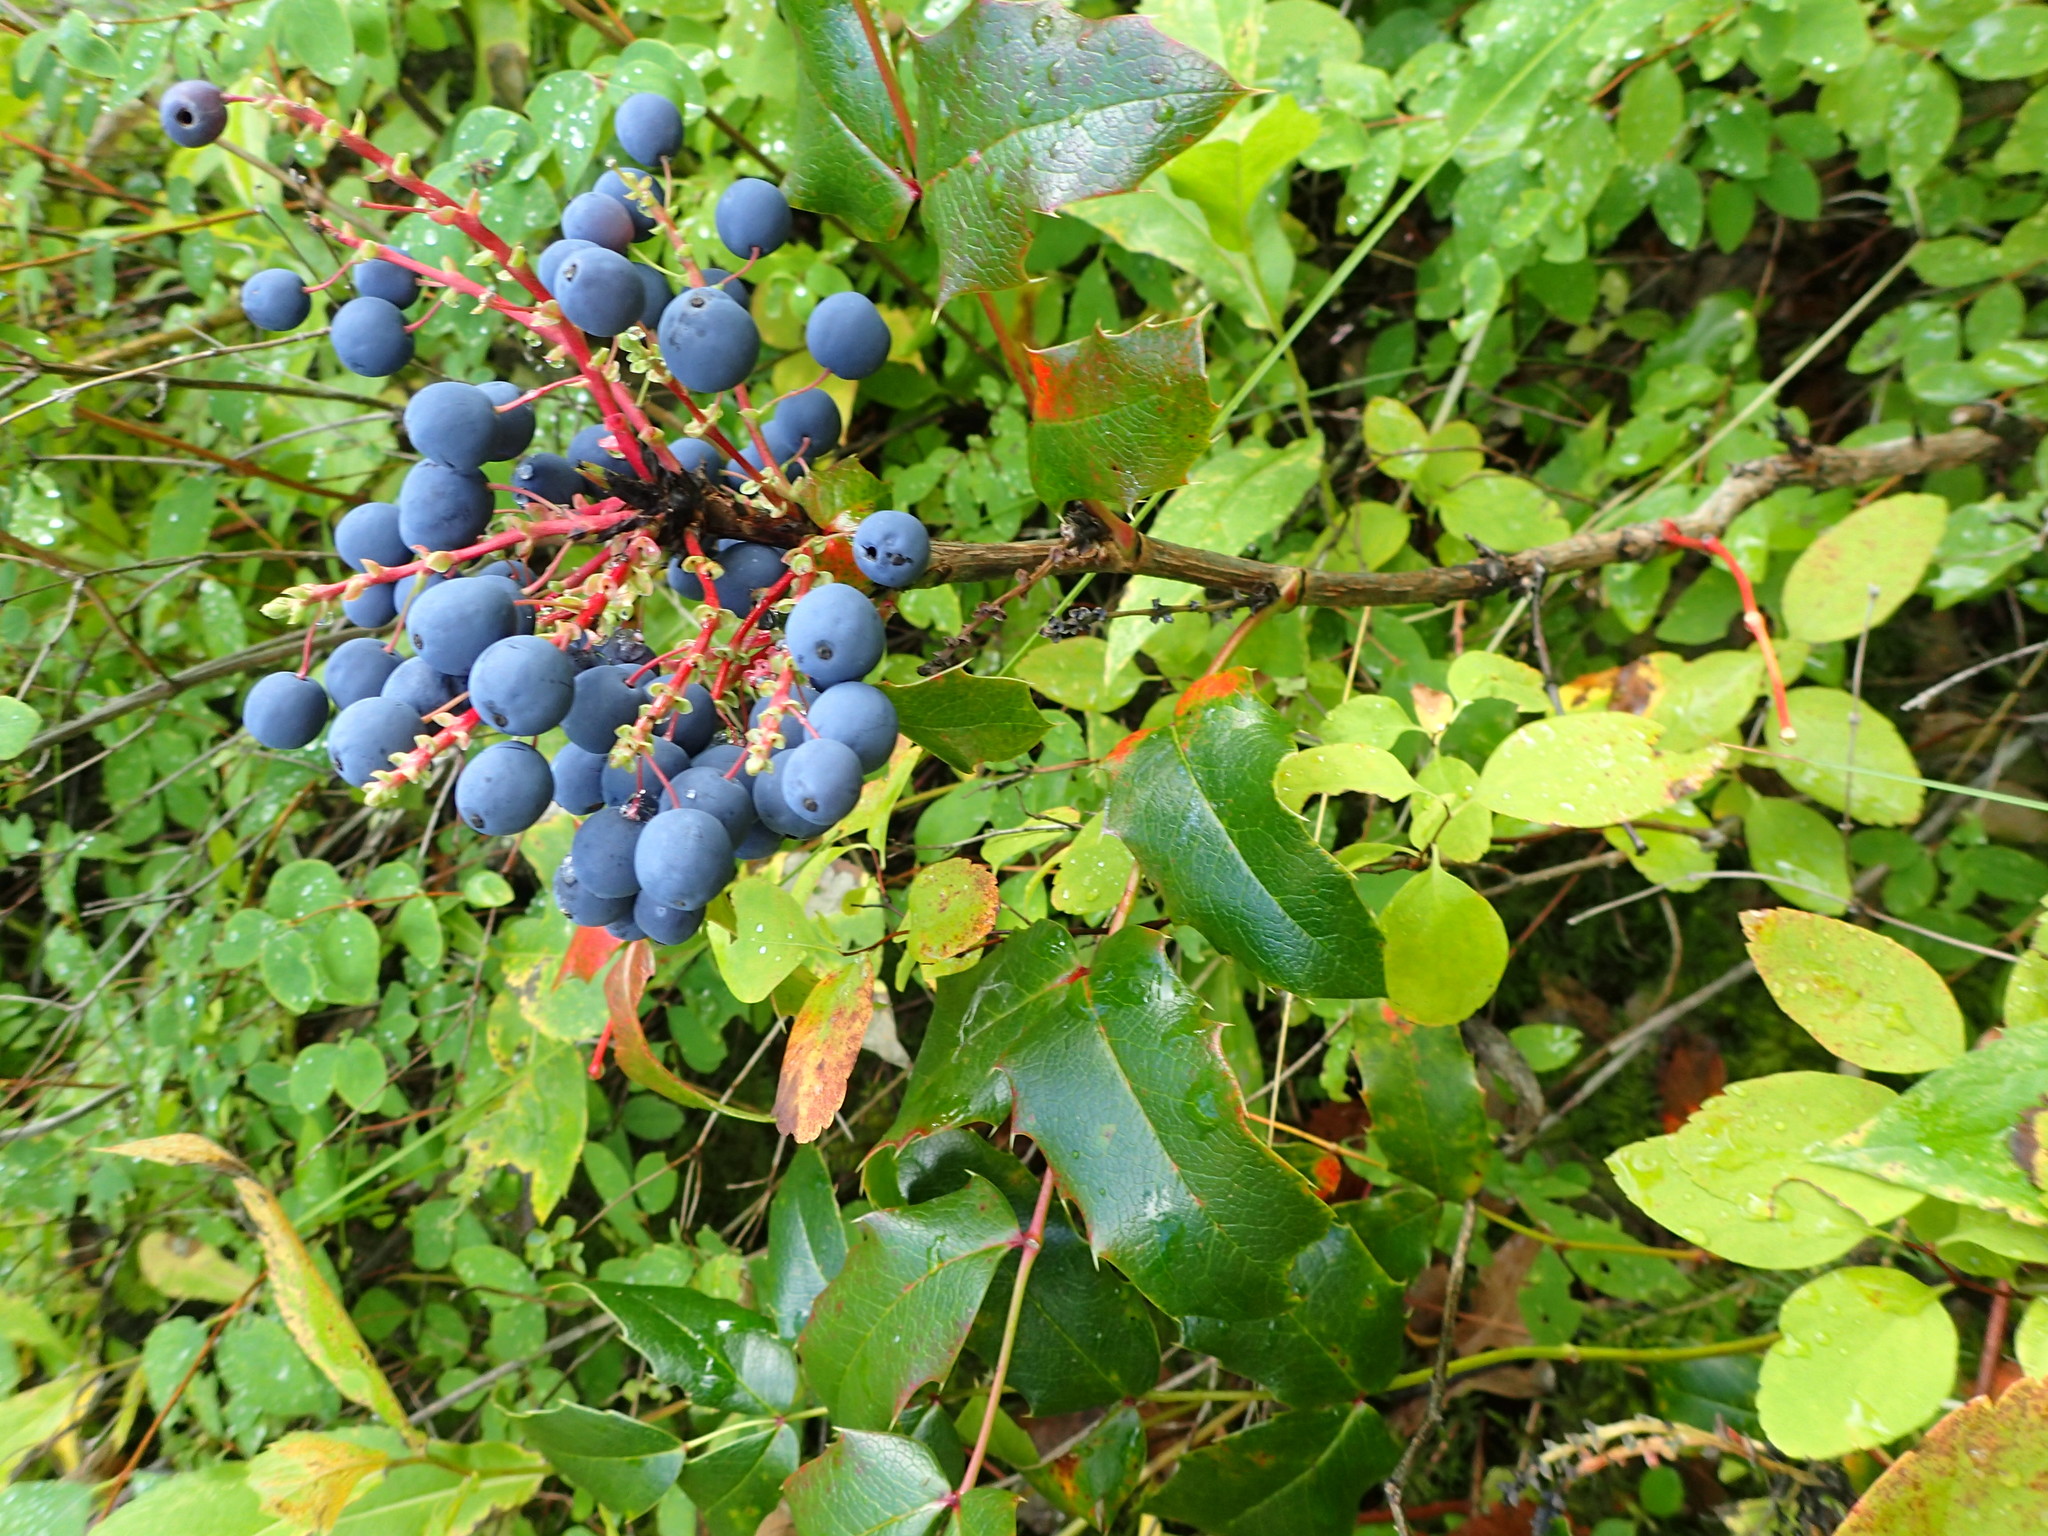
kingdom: Plantae
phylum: Tracheophyta
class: Magnoliopsida
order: Ranunculales
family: Berberidaceae
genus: Mahonia
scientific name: Mahonia aquifolium
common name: Oregon-grape
